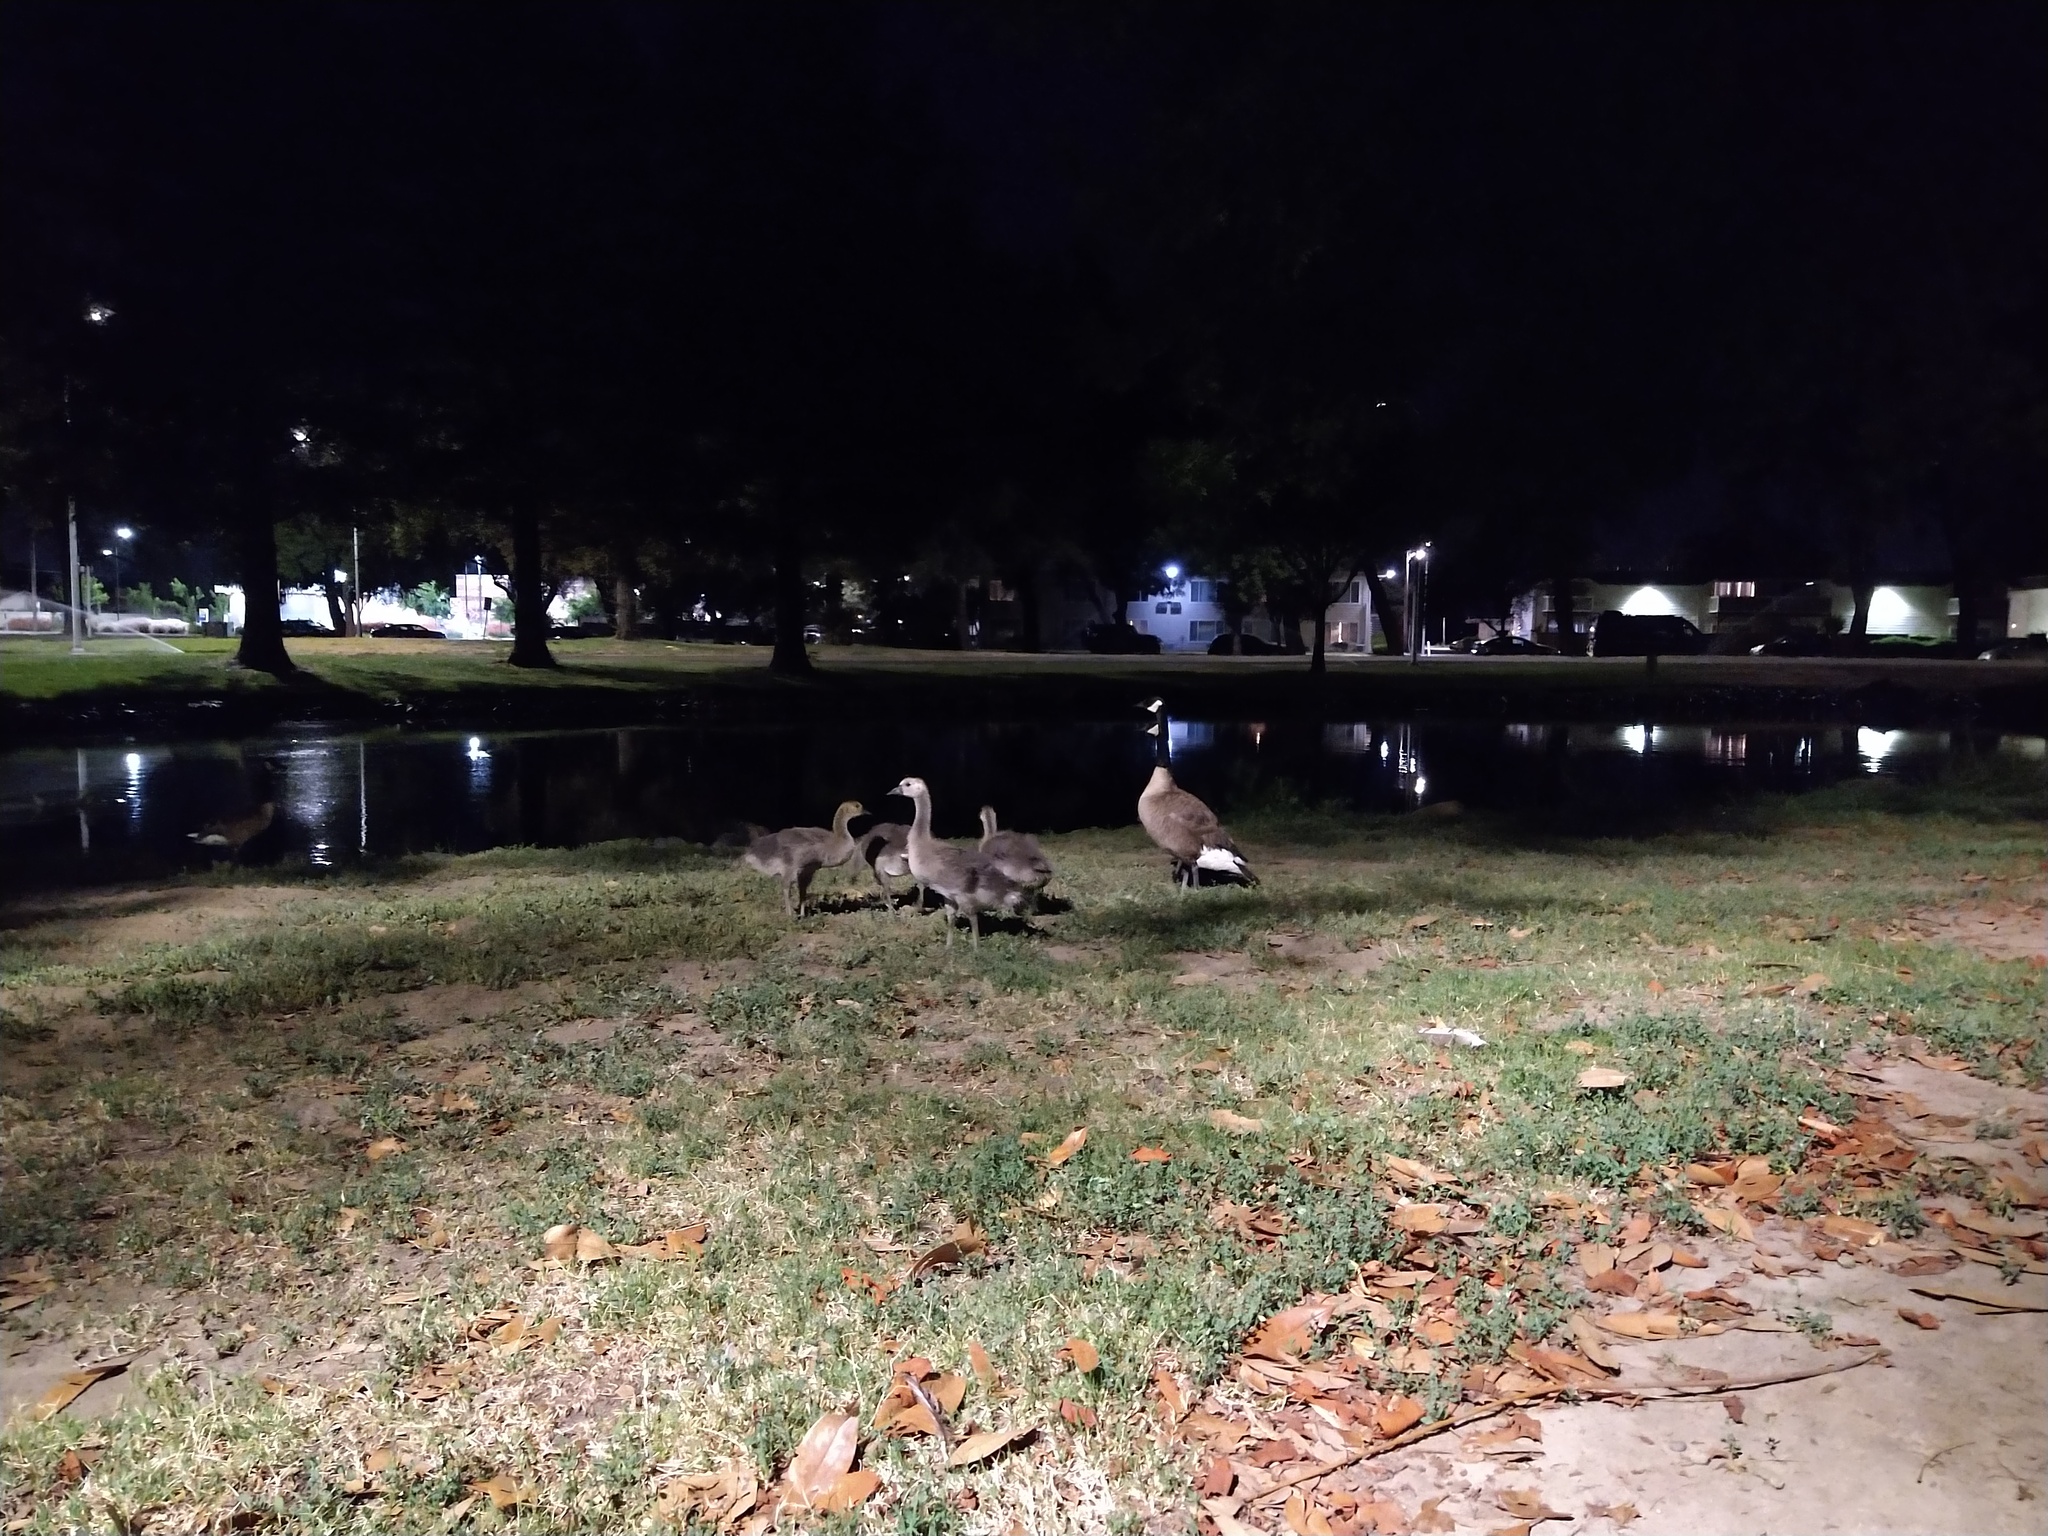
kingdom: Animalia
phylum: Chordata
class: Aves
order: Anseriformes
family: Anatidae
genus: Branta
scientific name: Branta canadensis
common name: Canada goose
